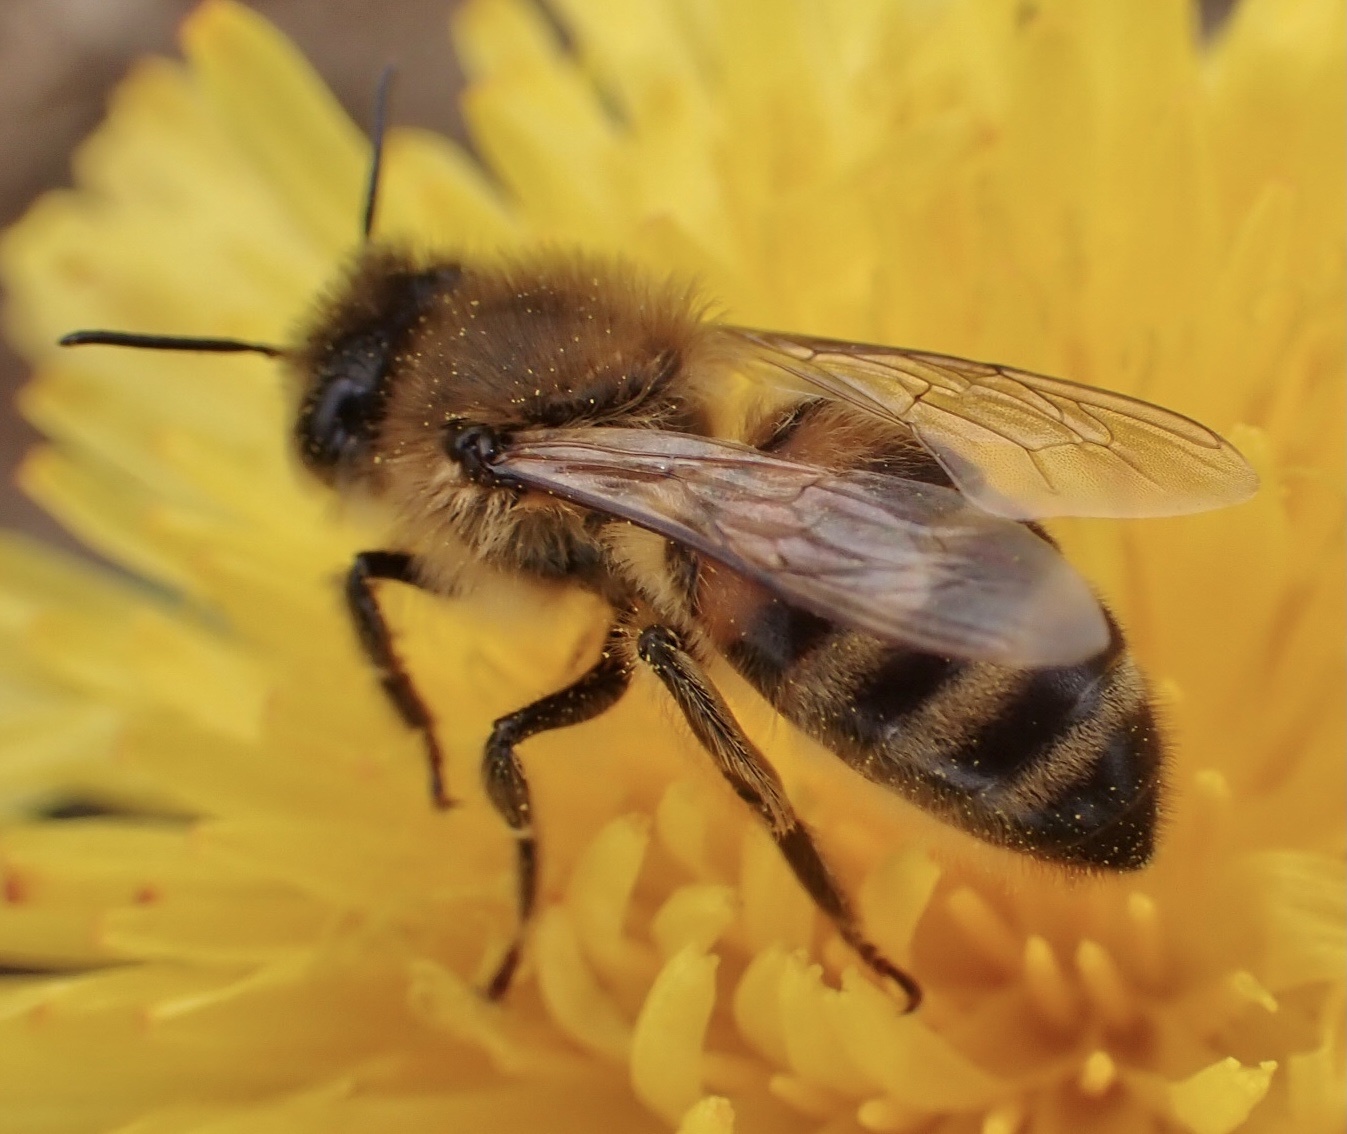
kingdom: Animalia
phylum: Arthropoda
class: Insecta
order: Hymenoptera
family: Apidae
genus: Apis
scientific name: Apis mellifera
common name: Honey bee
